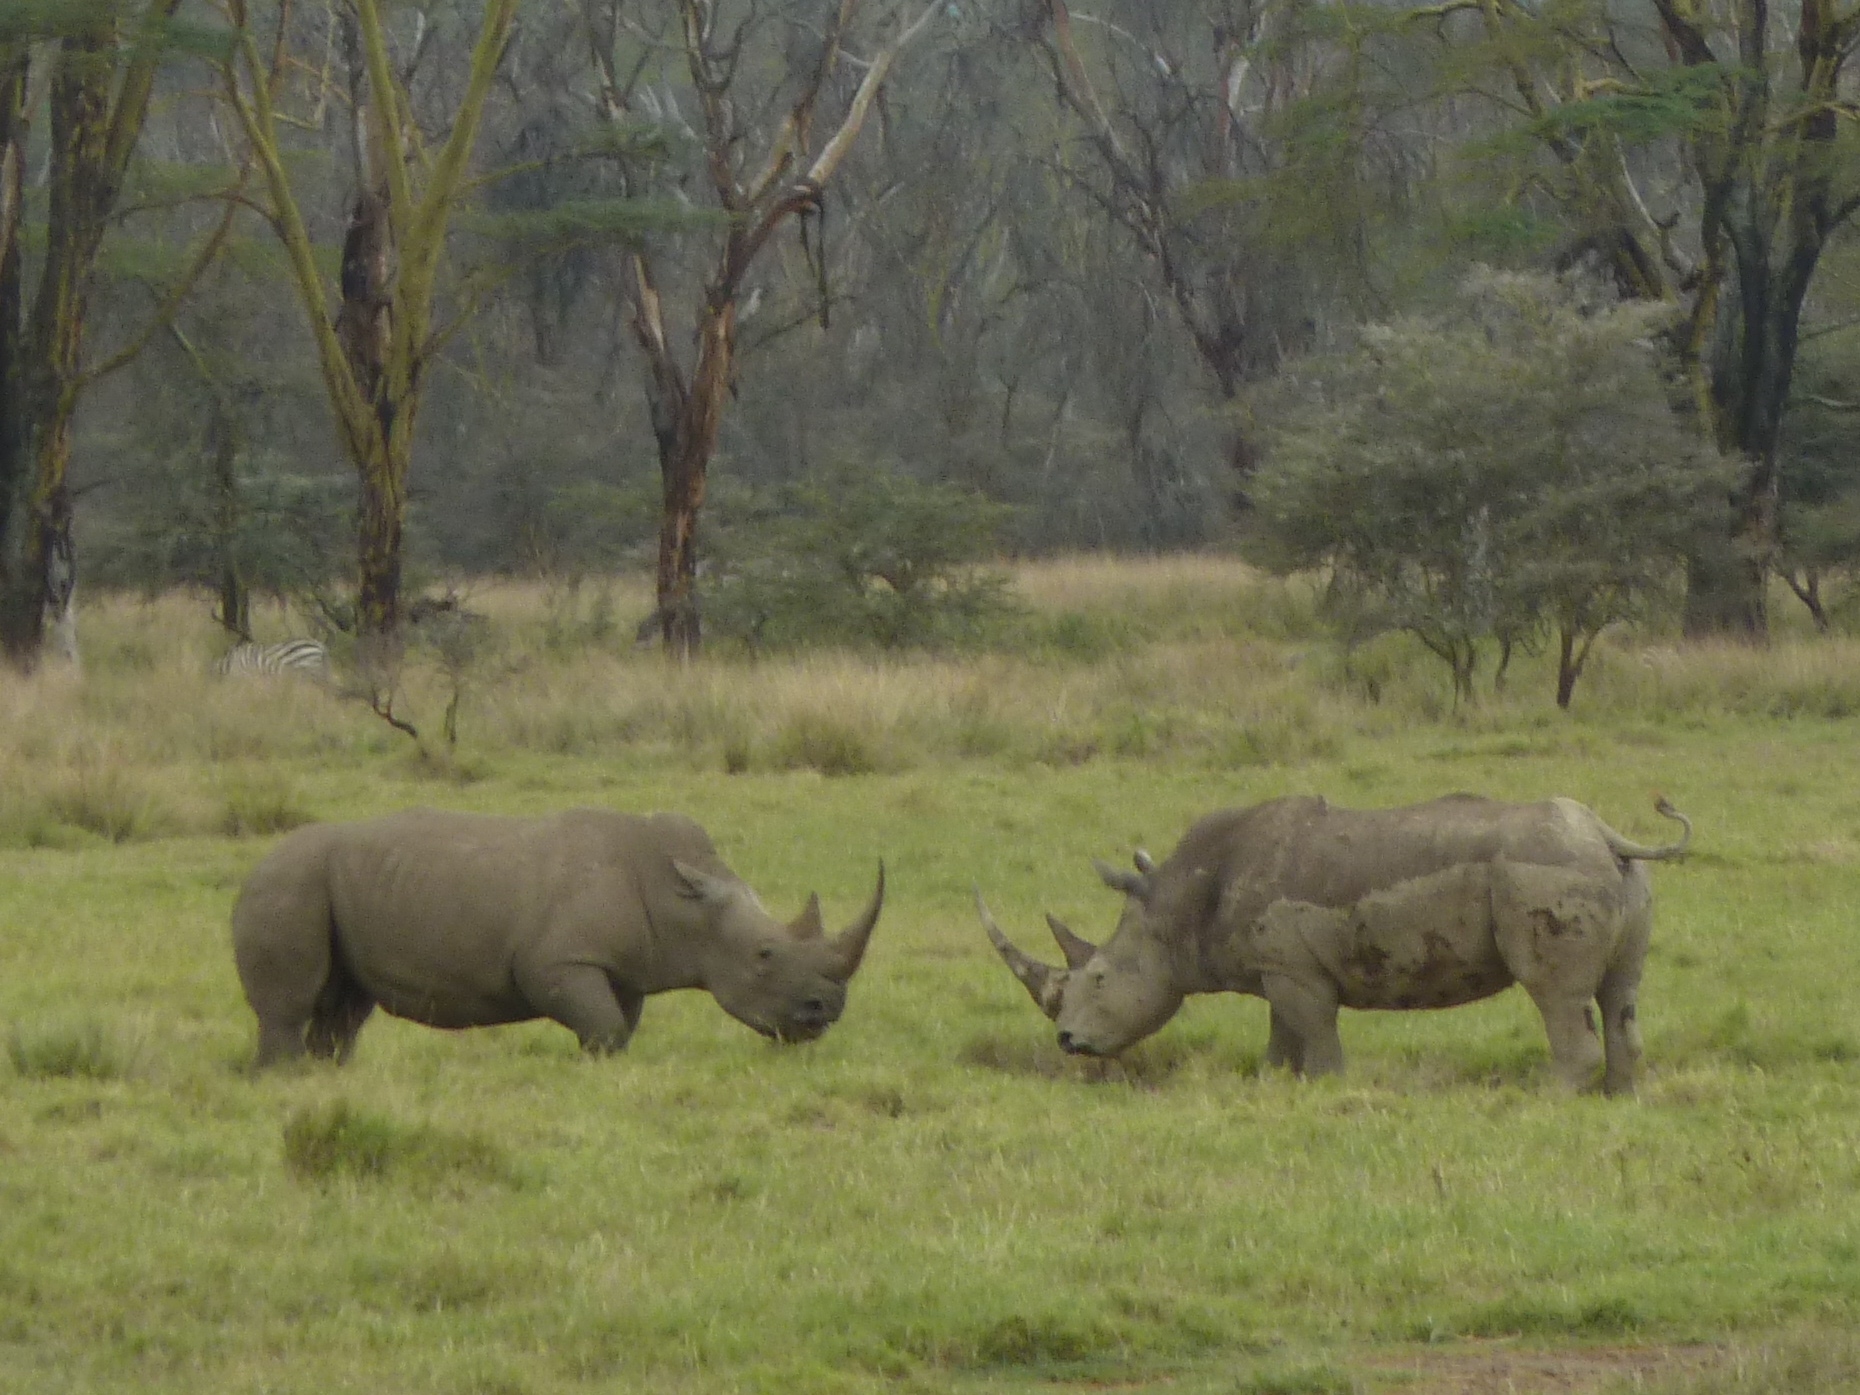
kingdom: Animalia
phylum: Chordata
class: Mammalia
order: Perissodactyla
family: Rhinocerotidae
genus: Ceratotherium
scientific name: Ceratotherium simum
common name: White rhinoceros
